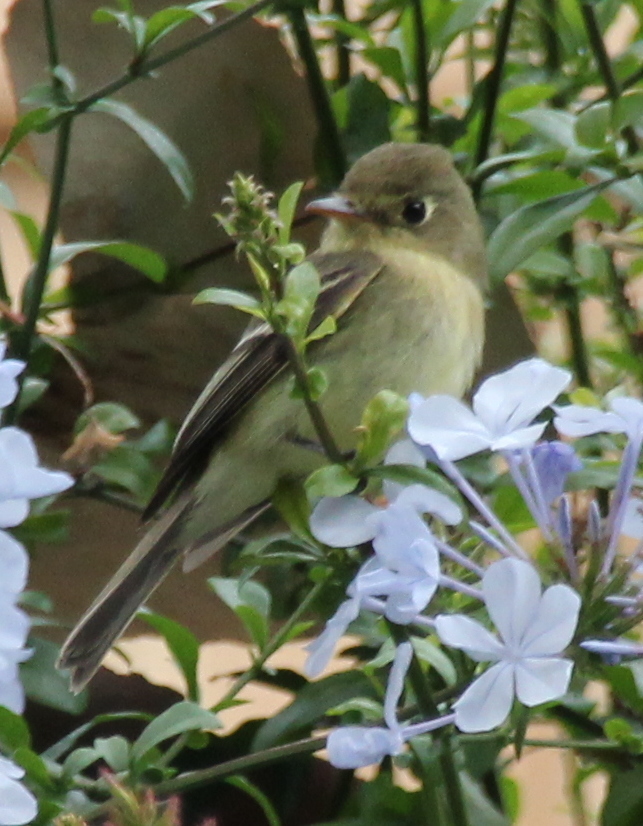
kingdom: Animalia
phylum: Chordata
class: Aves
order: Passeriformes
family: Tyrannidae
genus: Empidonax
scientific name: Empidonax difficilis
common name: Pacific-slope flycatcher
